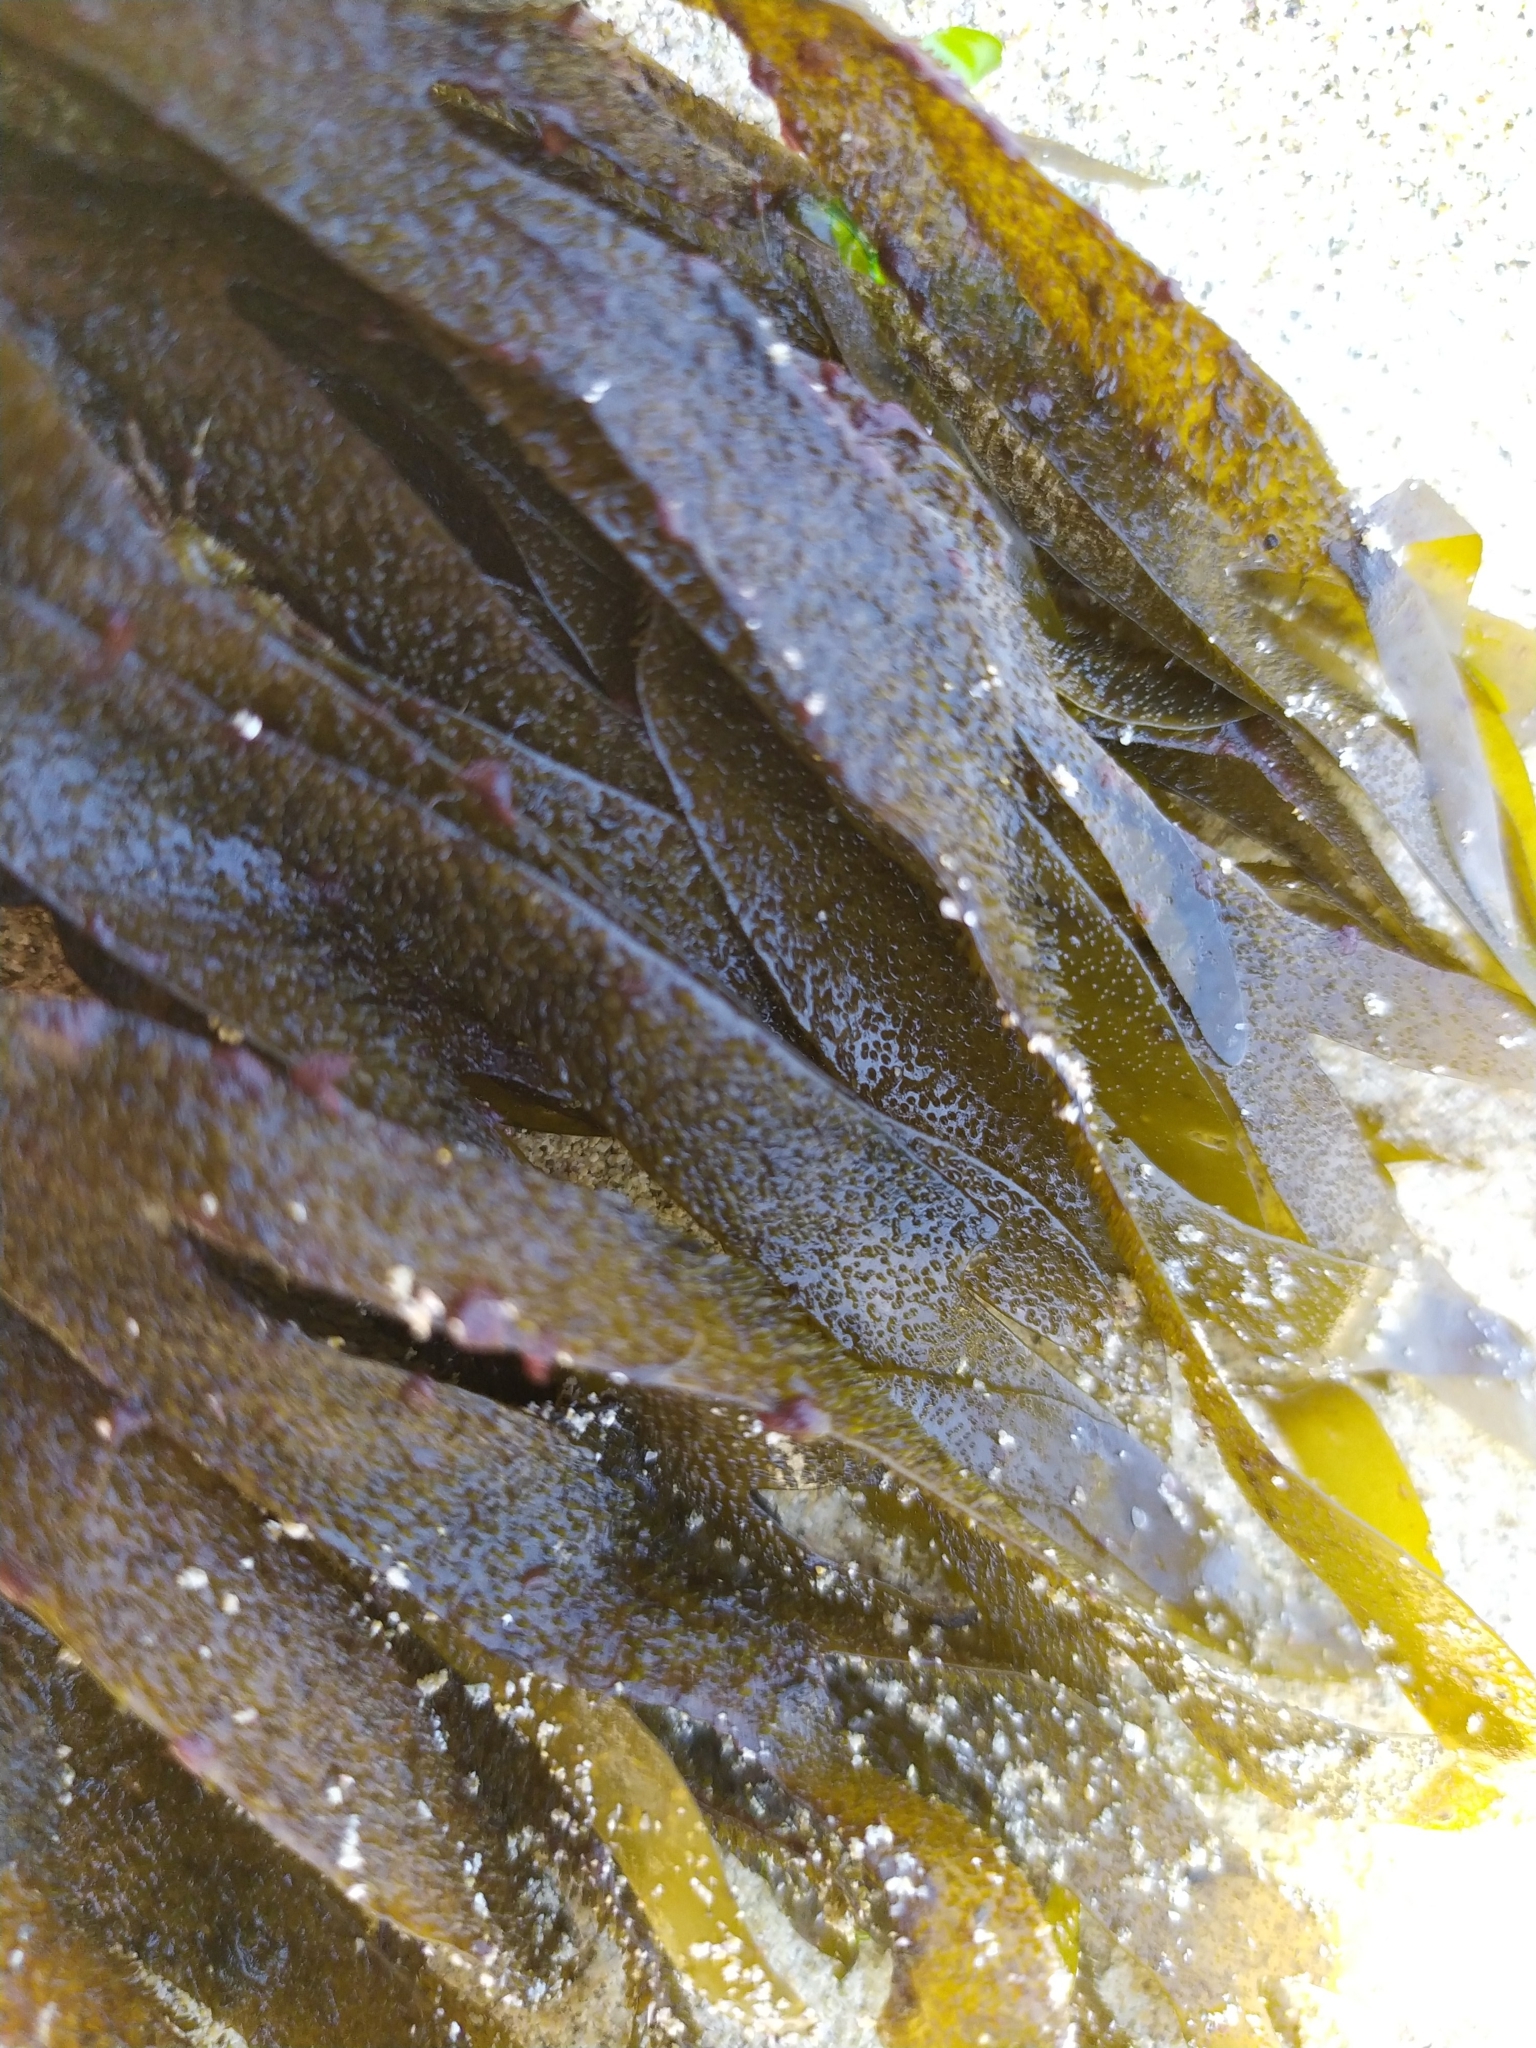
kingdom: Chromista
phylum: Ochrophyta
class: Phaeophyceae
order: Dictyotales
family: Dictyotaceae
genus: Dictyota
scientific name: Dictyota kunthii
